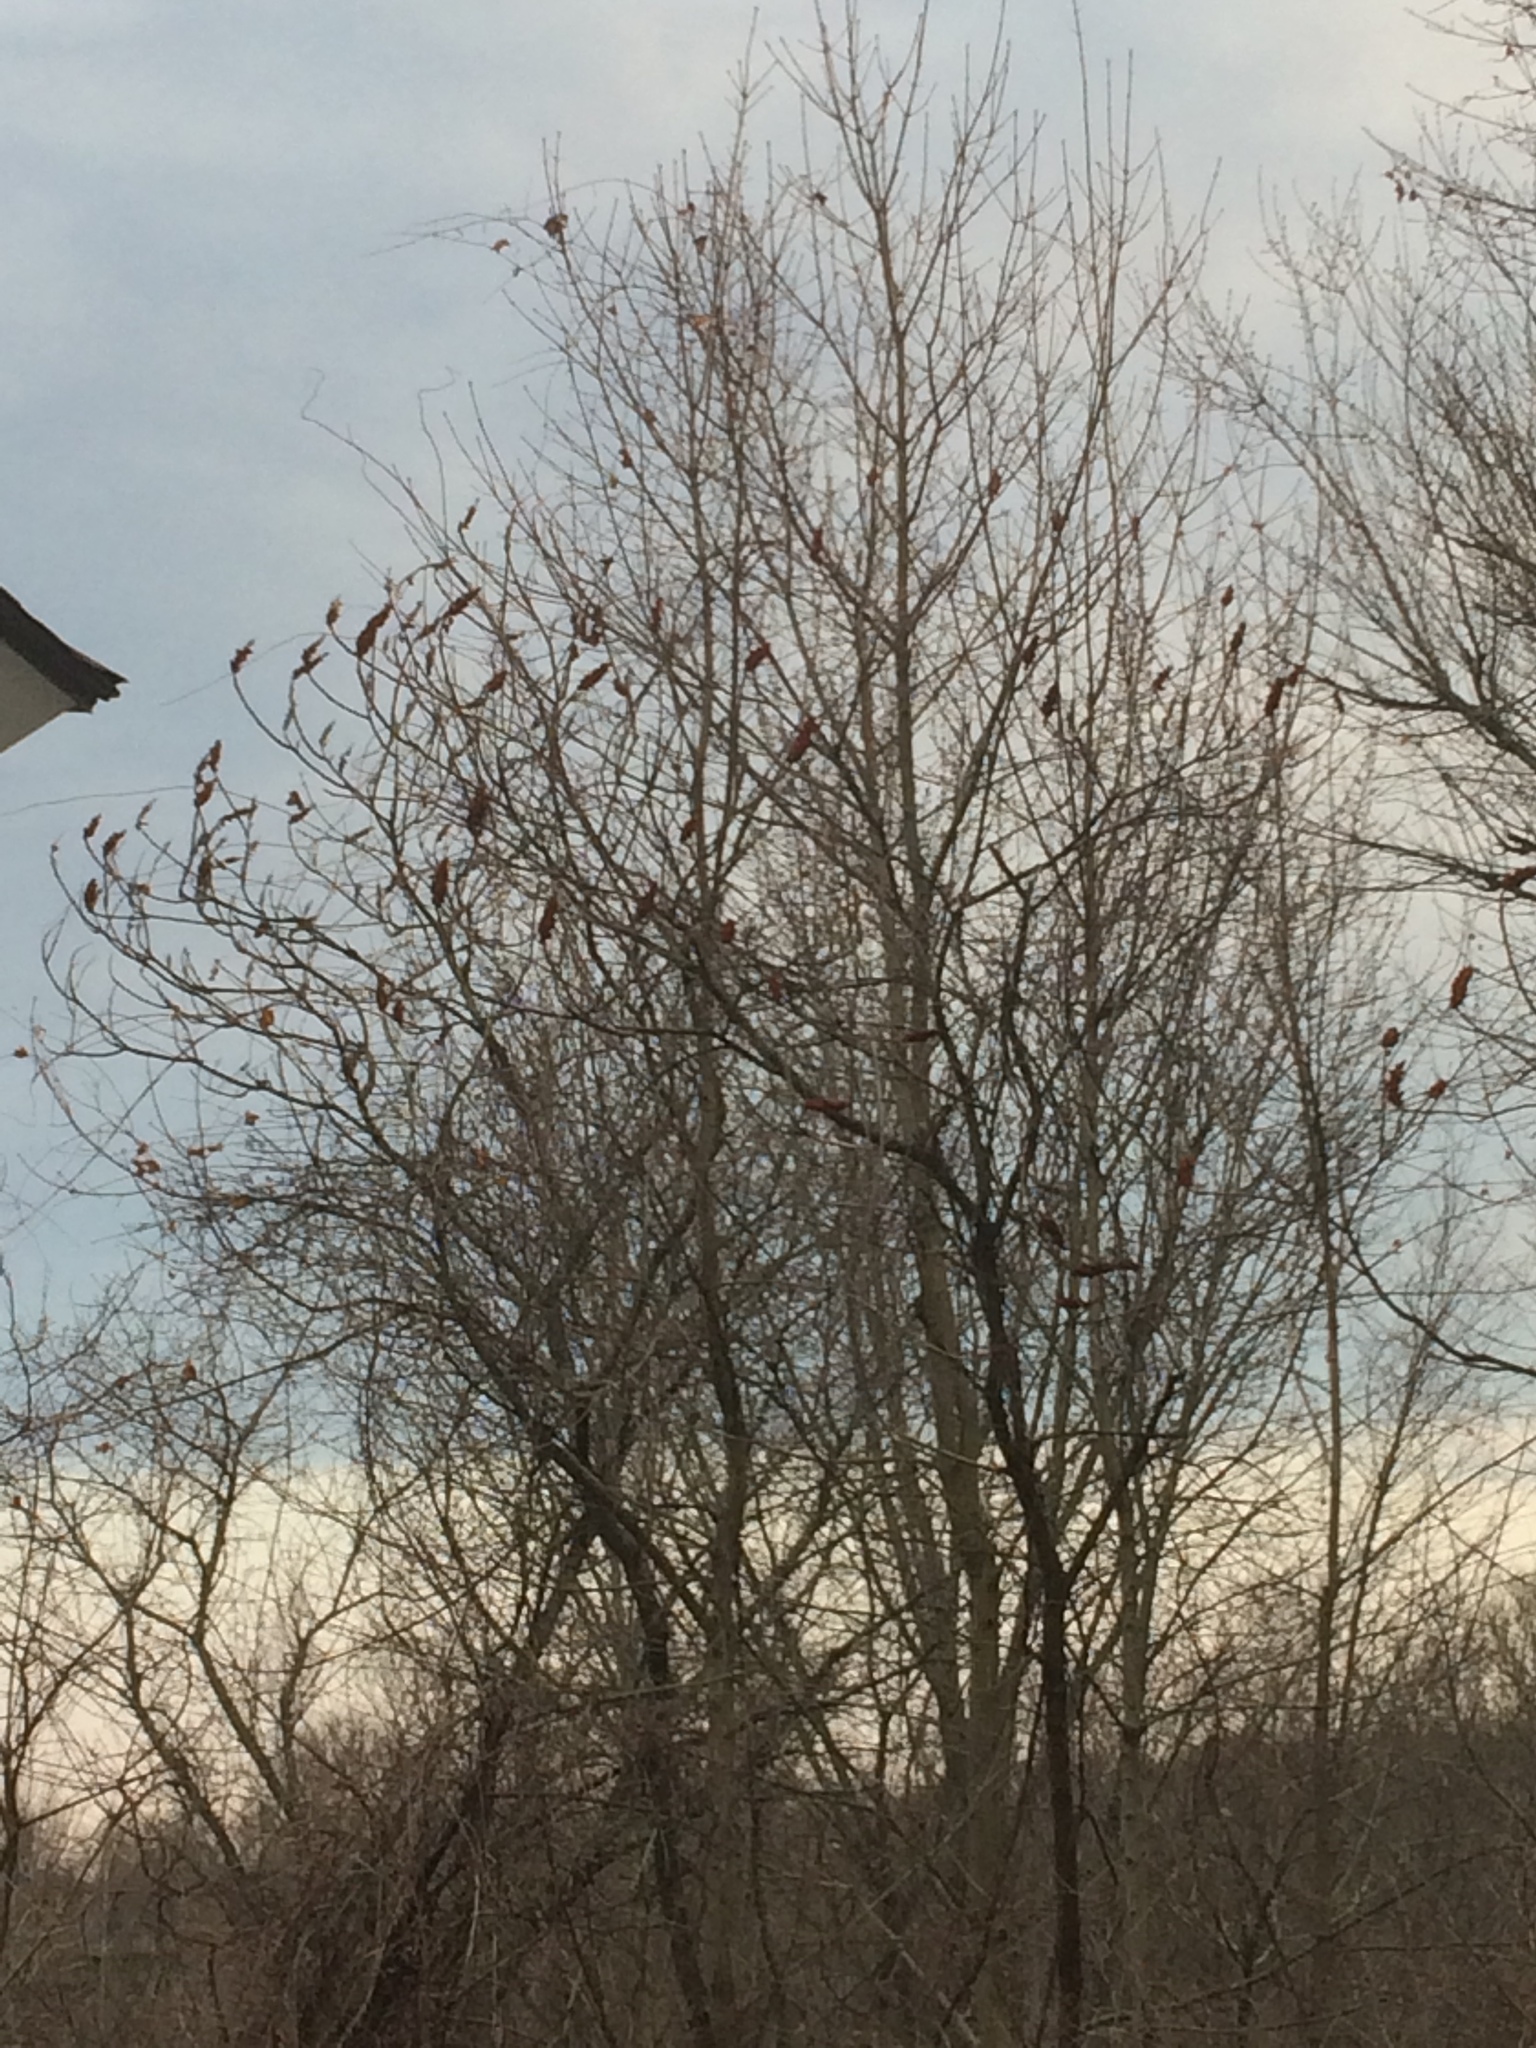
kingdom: Plantae
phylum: Tracheophyta
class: Magnoliopsida
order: Sapindales
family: Anacardiaceae
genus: Rhus
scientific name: Rhus typhina
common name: Staghorn sumac
